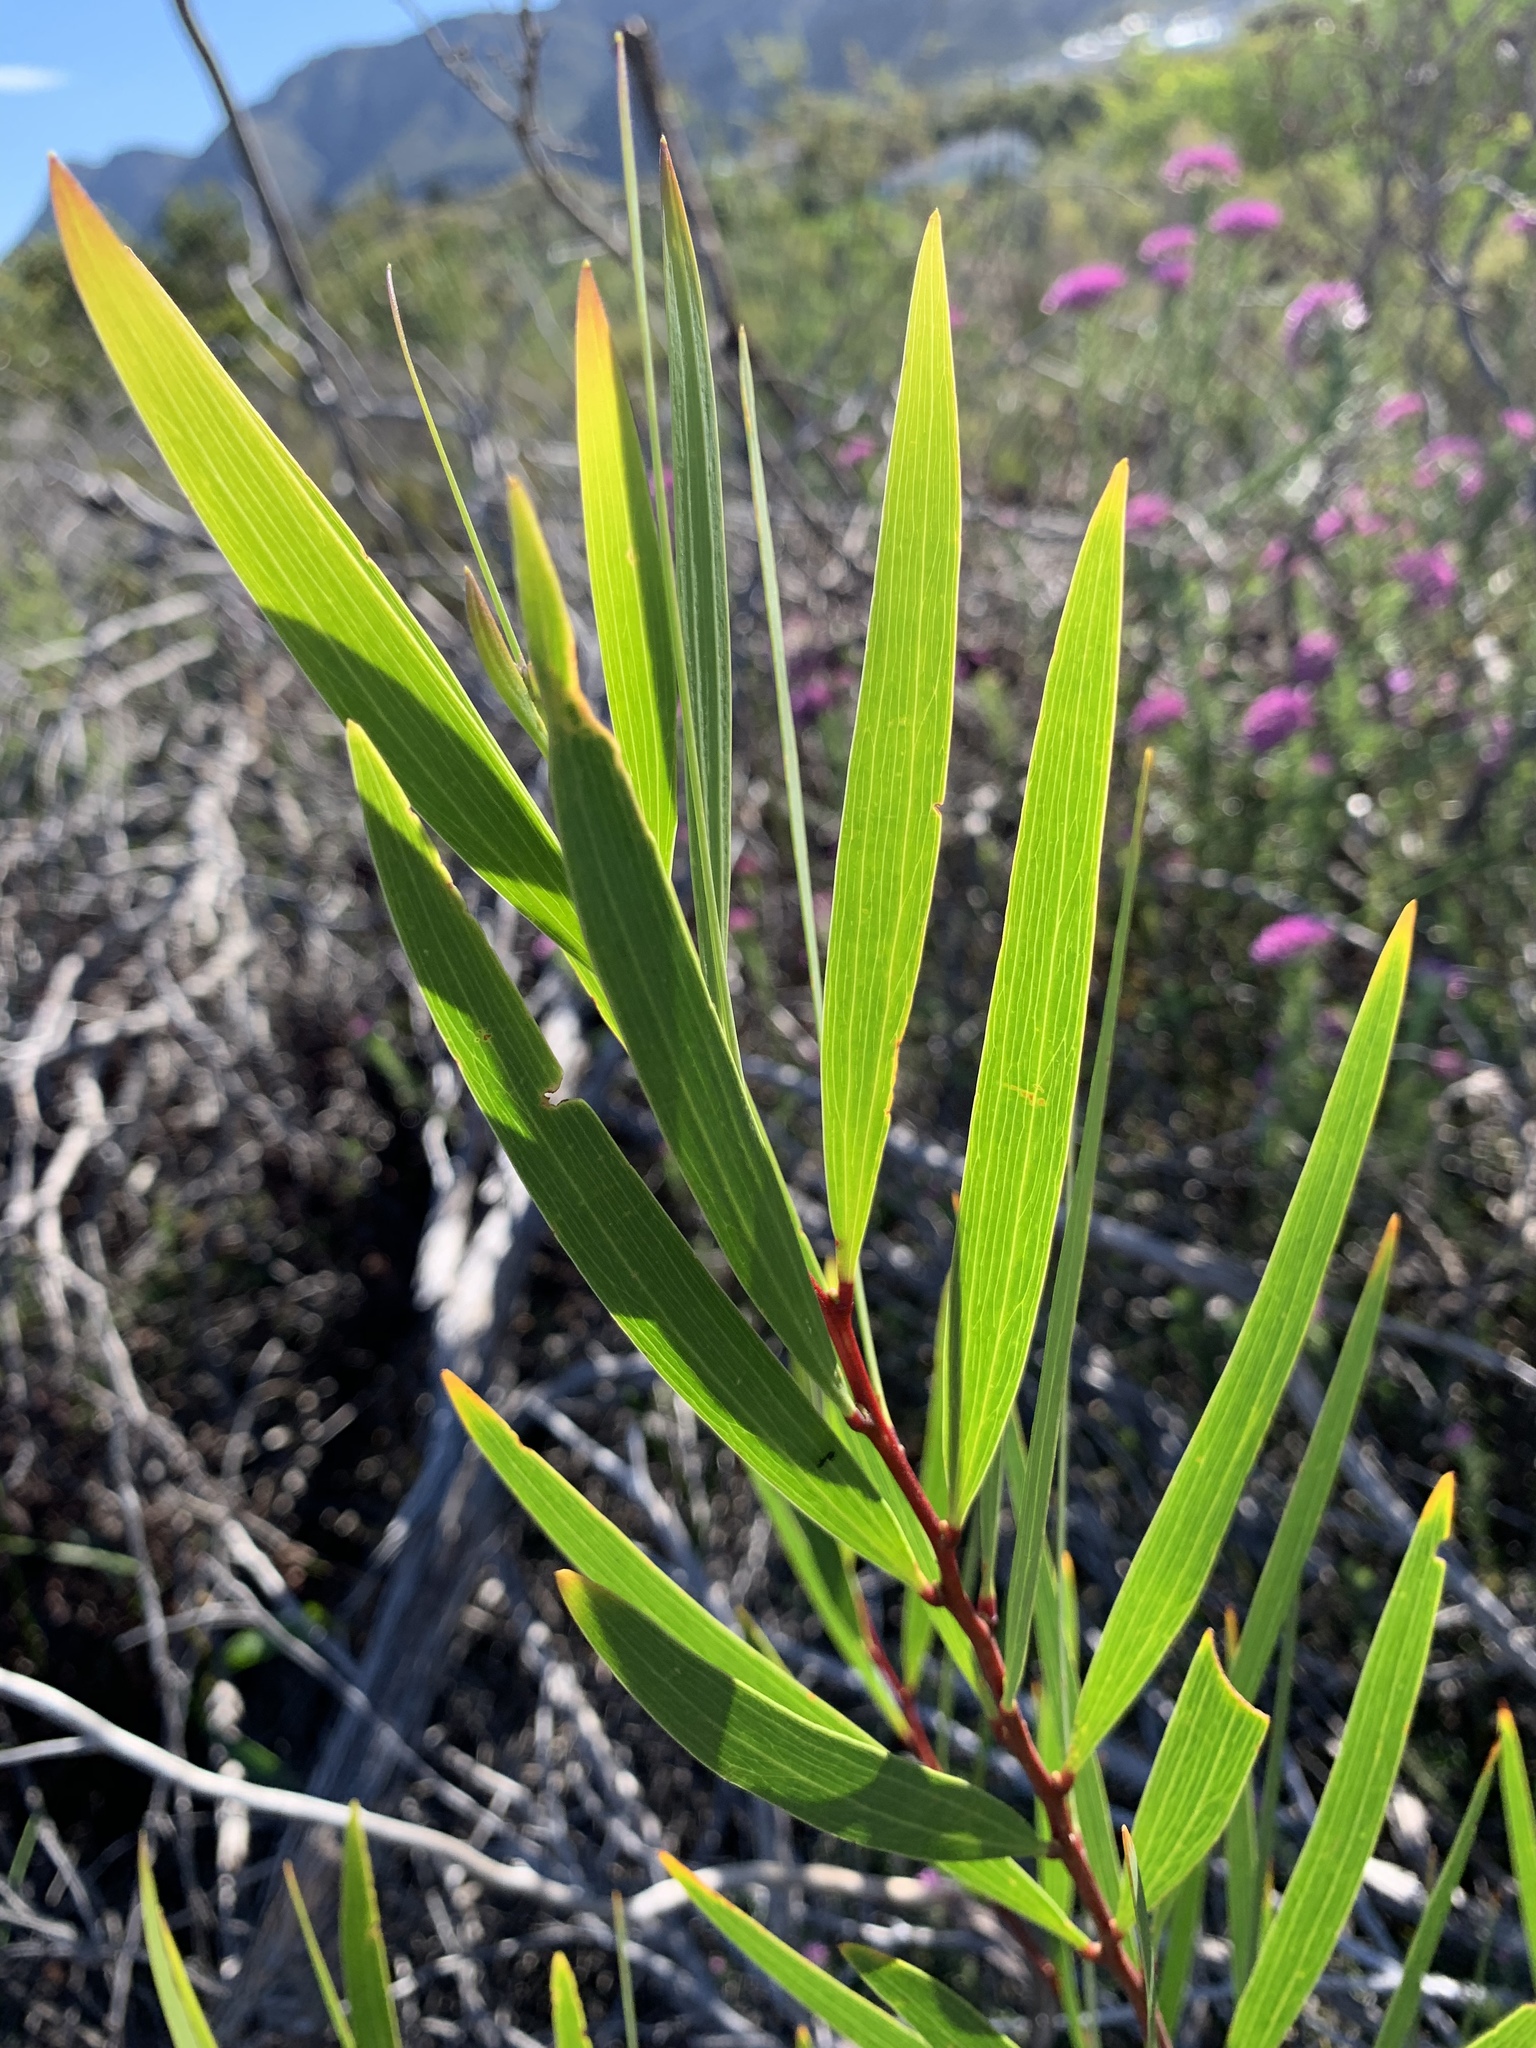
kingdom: Plantae
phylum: Tracheophyta
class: Magnoliopsida
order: Fabales
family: Fabaceae
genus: Acacia
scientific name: Acacia longifolia
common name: Sydney golden wattle
